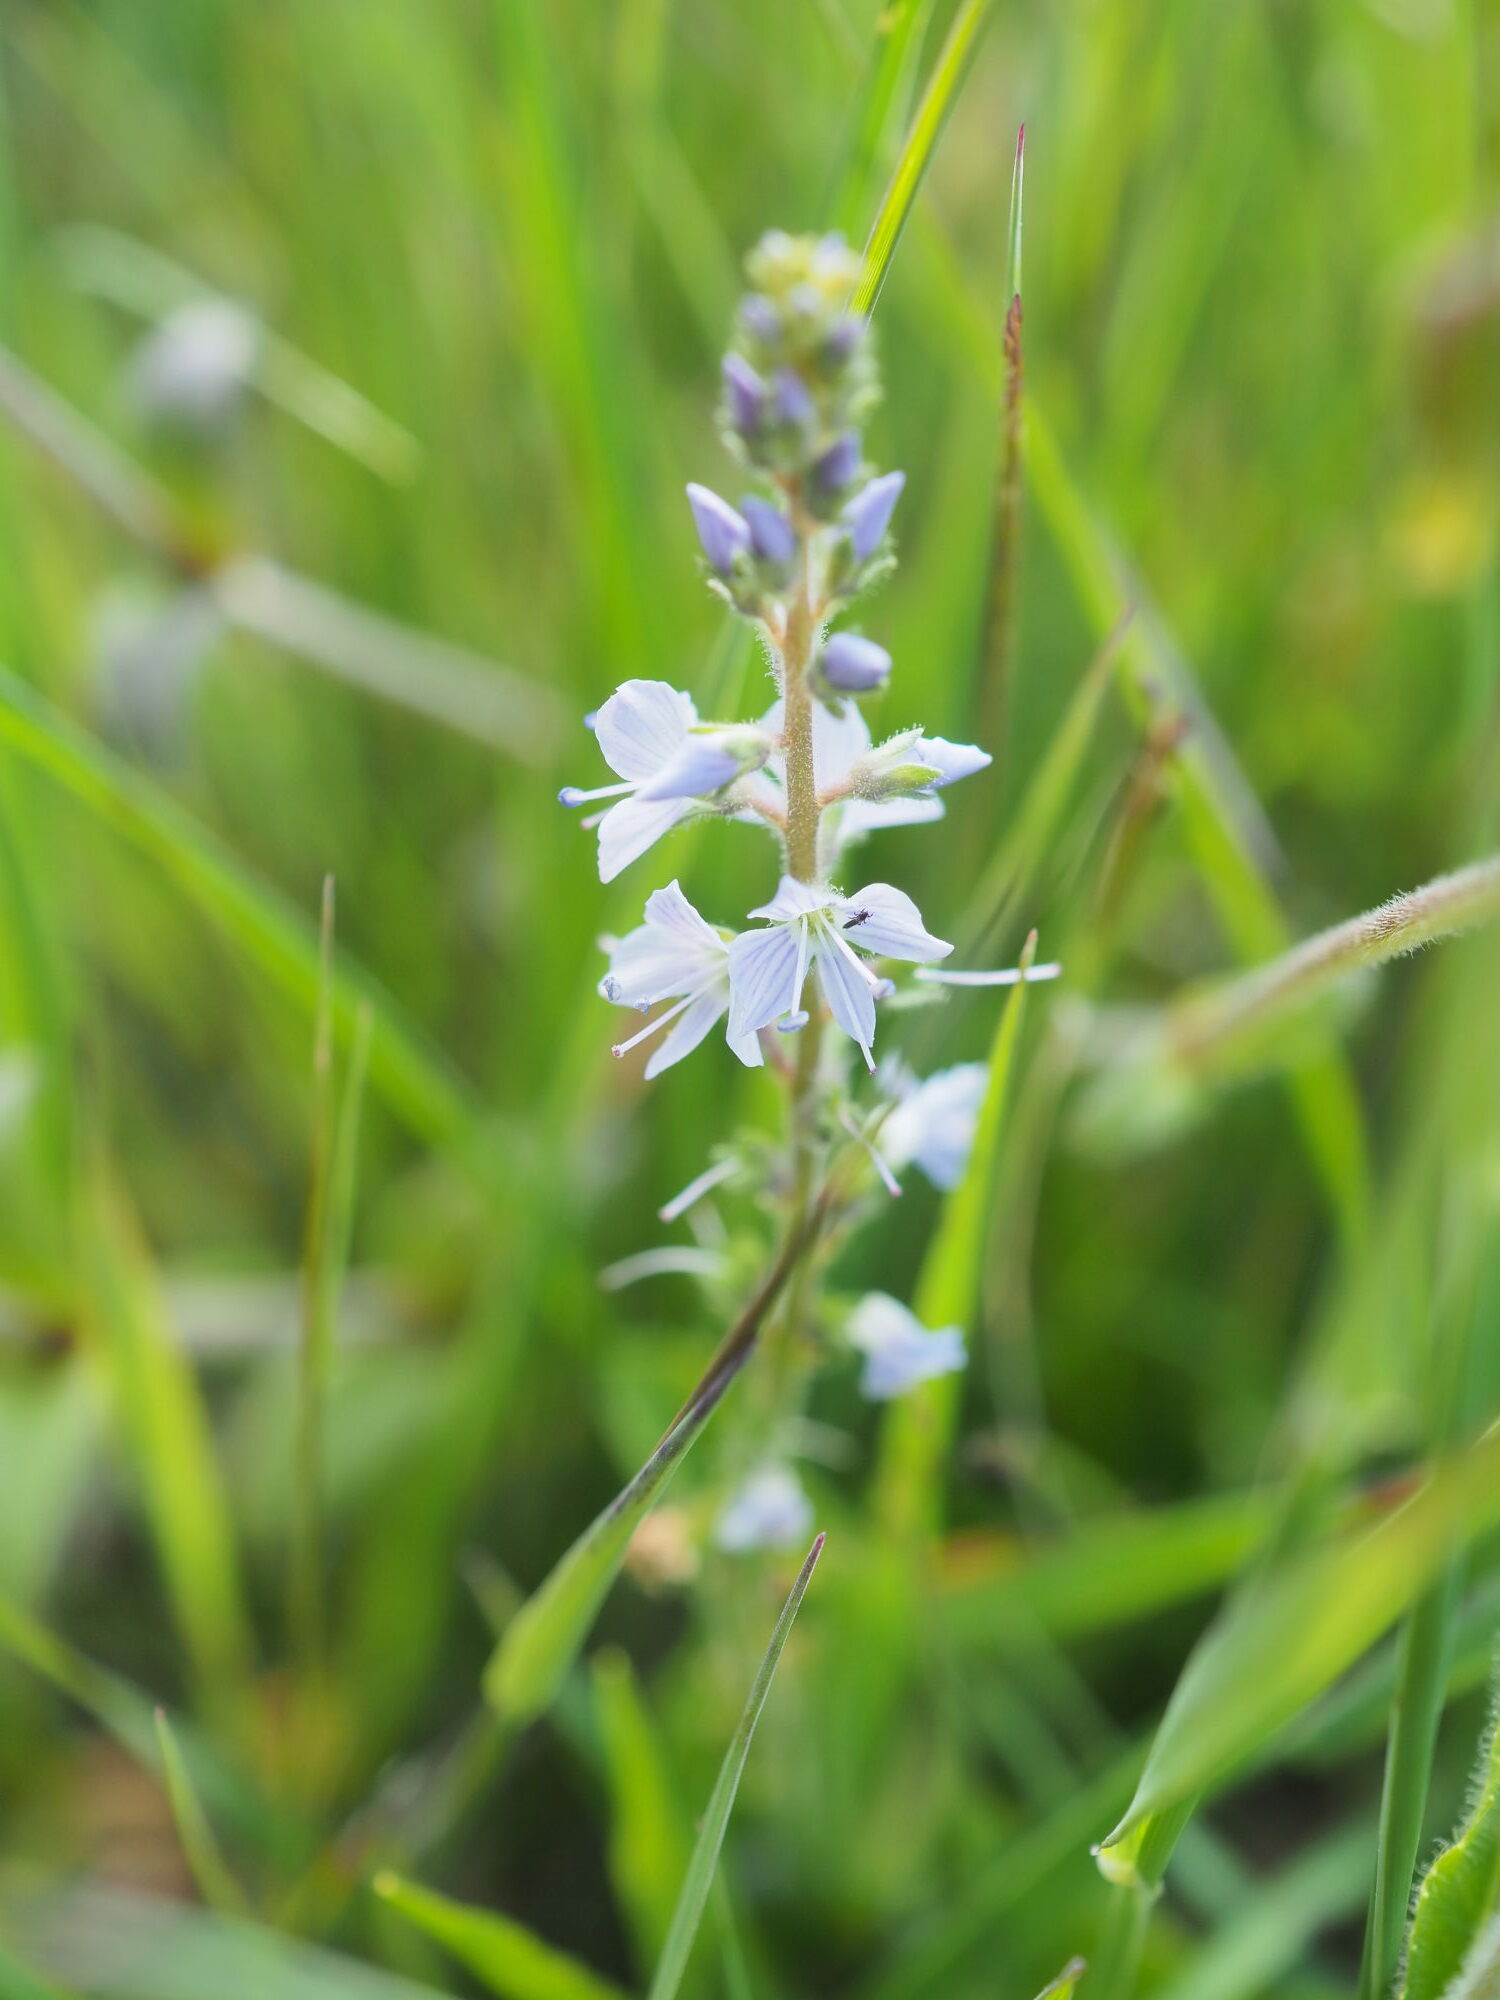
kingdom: Plantae
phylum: Tracheophyta
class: Magnoliopsida
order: Lamiales
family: Plantaginaceae
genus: Veronica
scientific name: Veronica officinalis
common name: Common speedwell
